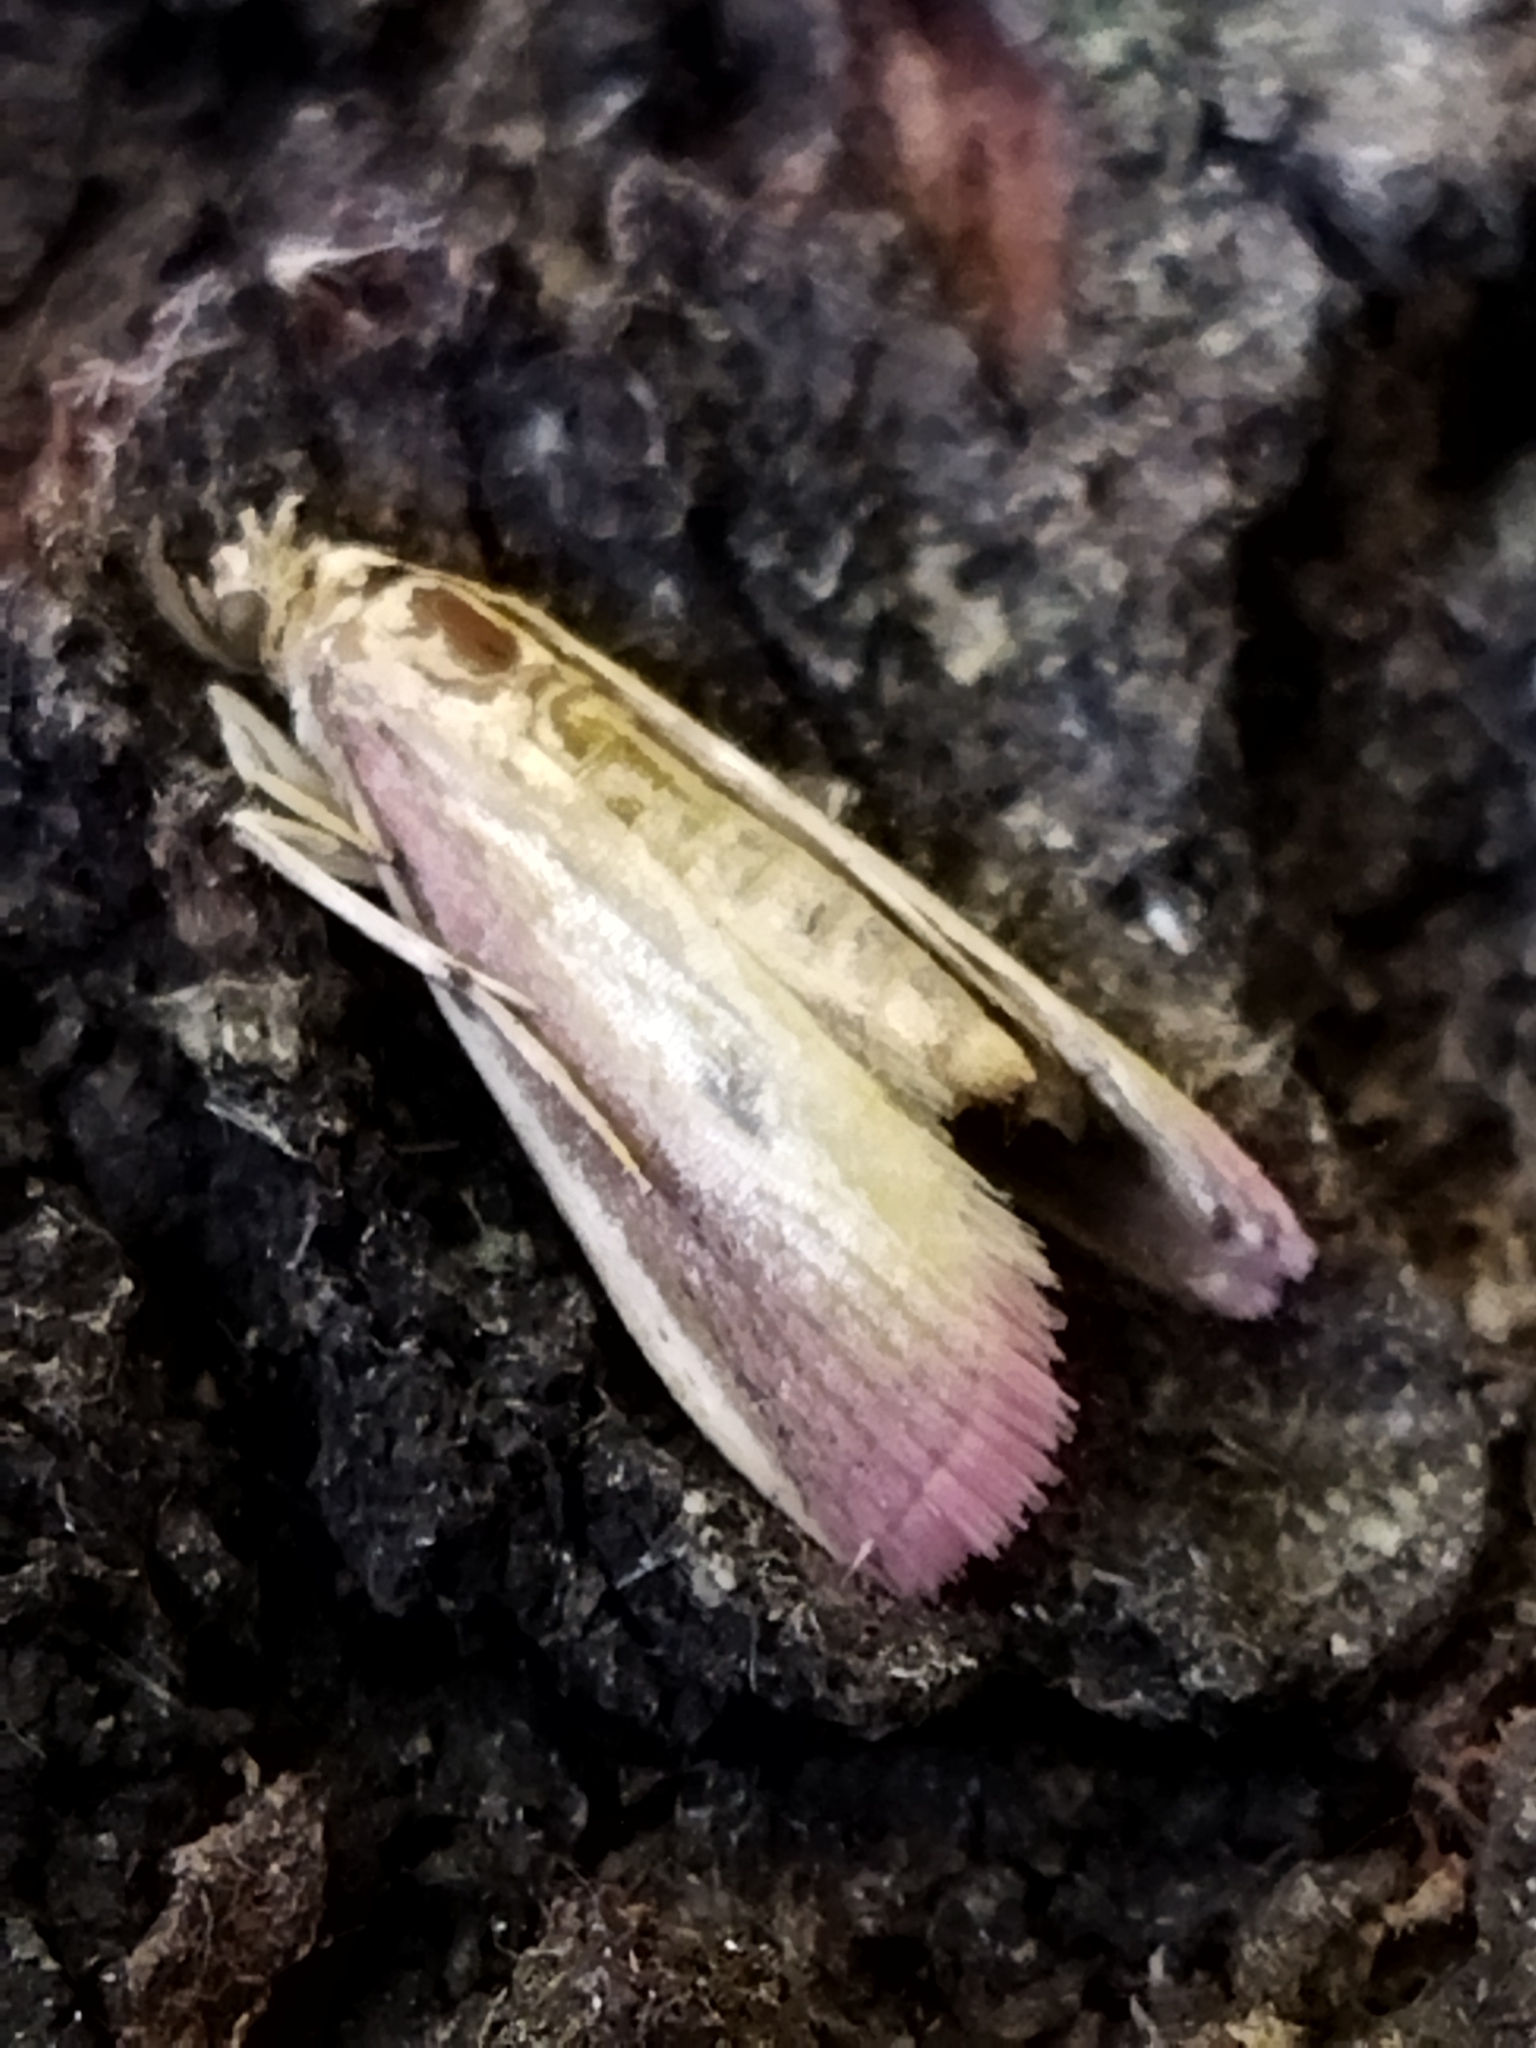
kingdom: Animalia
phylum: Arthropoda
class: Insecta
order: Lepidoptera
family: Pyralidae
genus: Oncocera
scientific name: Oncocera semirubella
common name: Rosy-striped knot-horn
